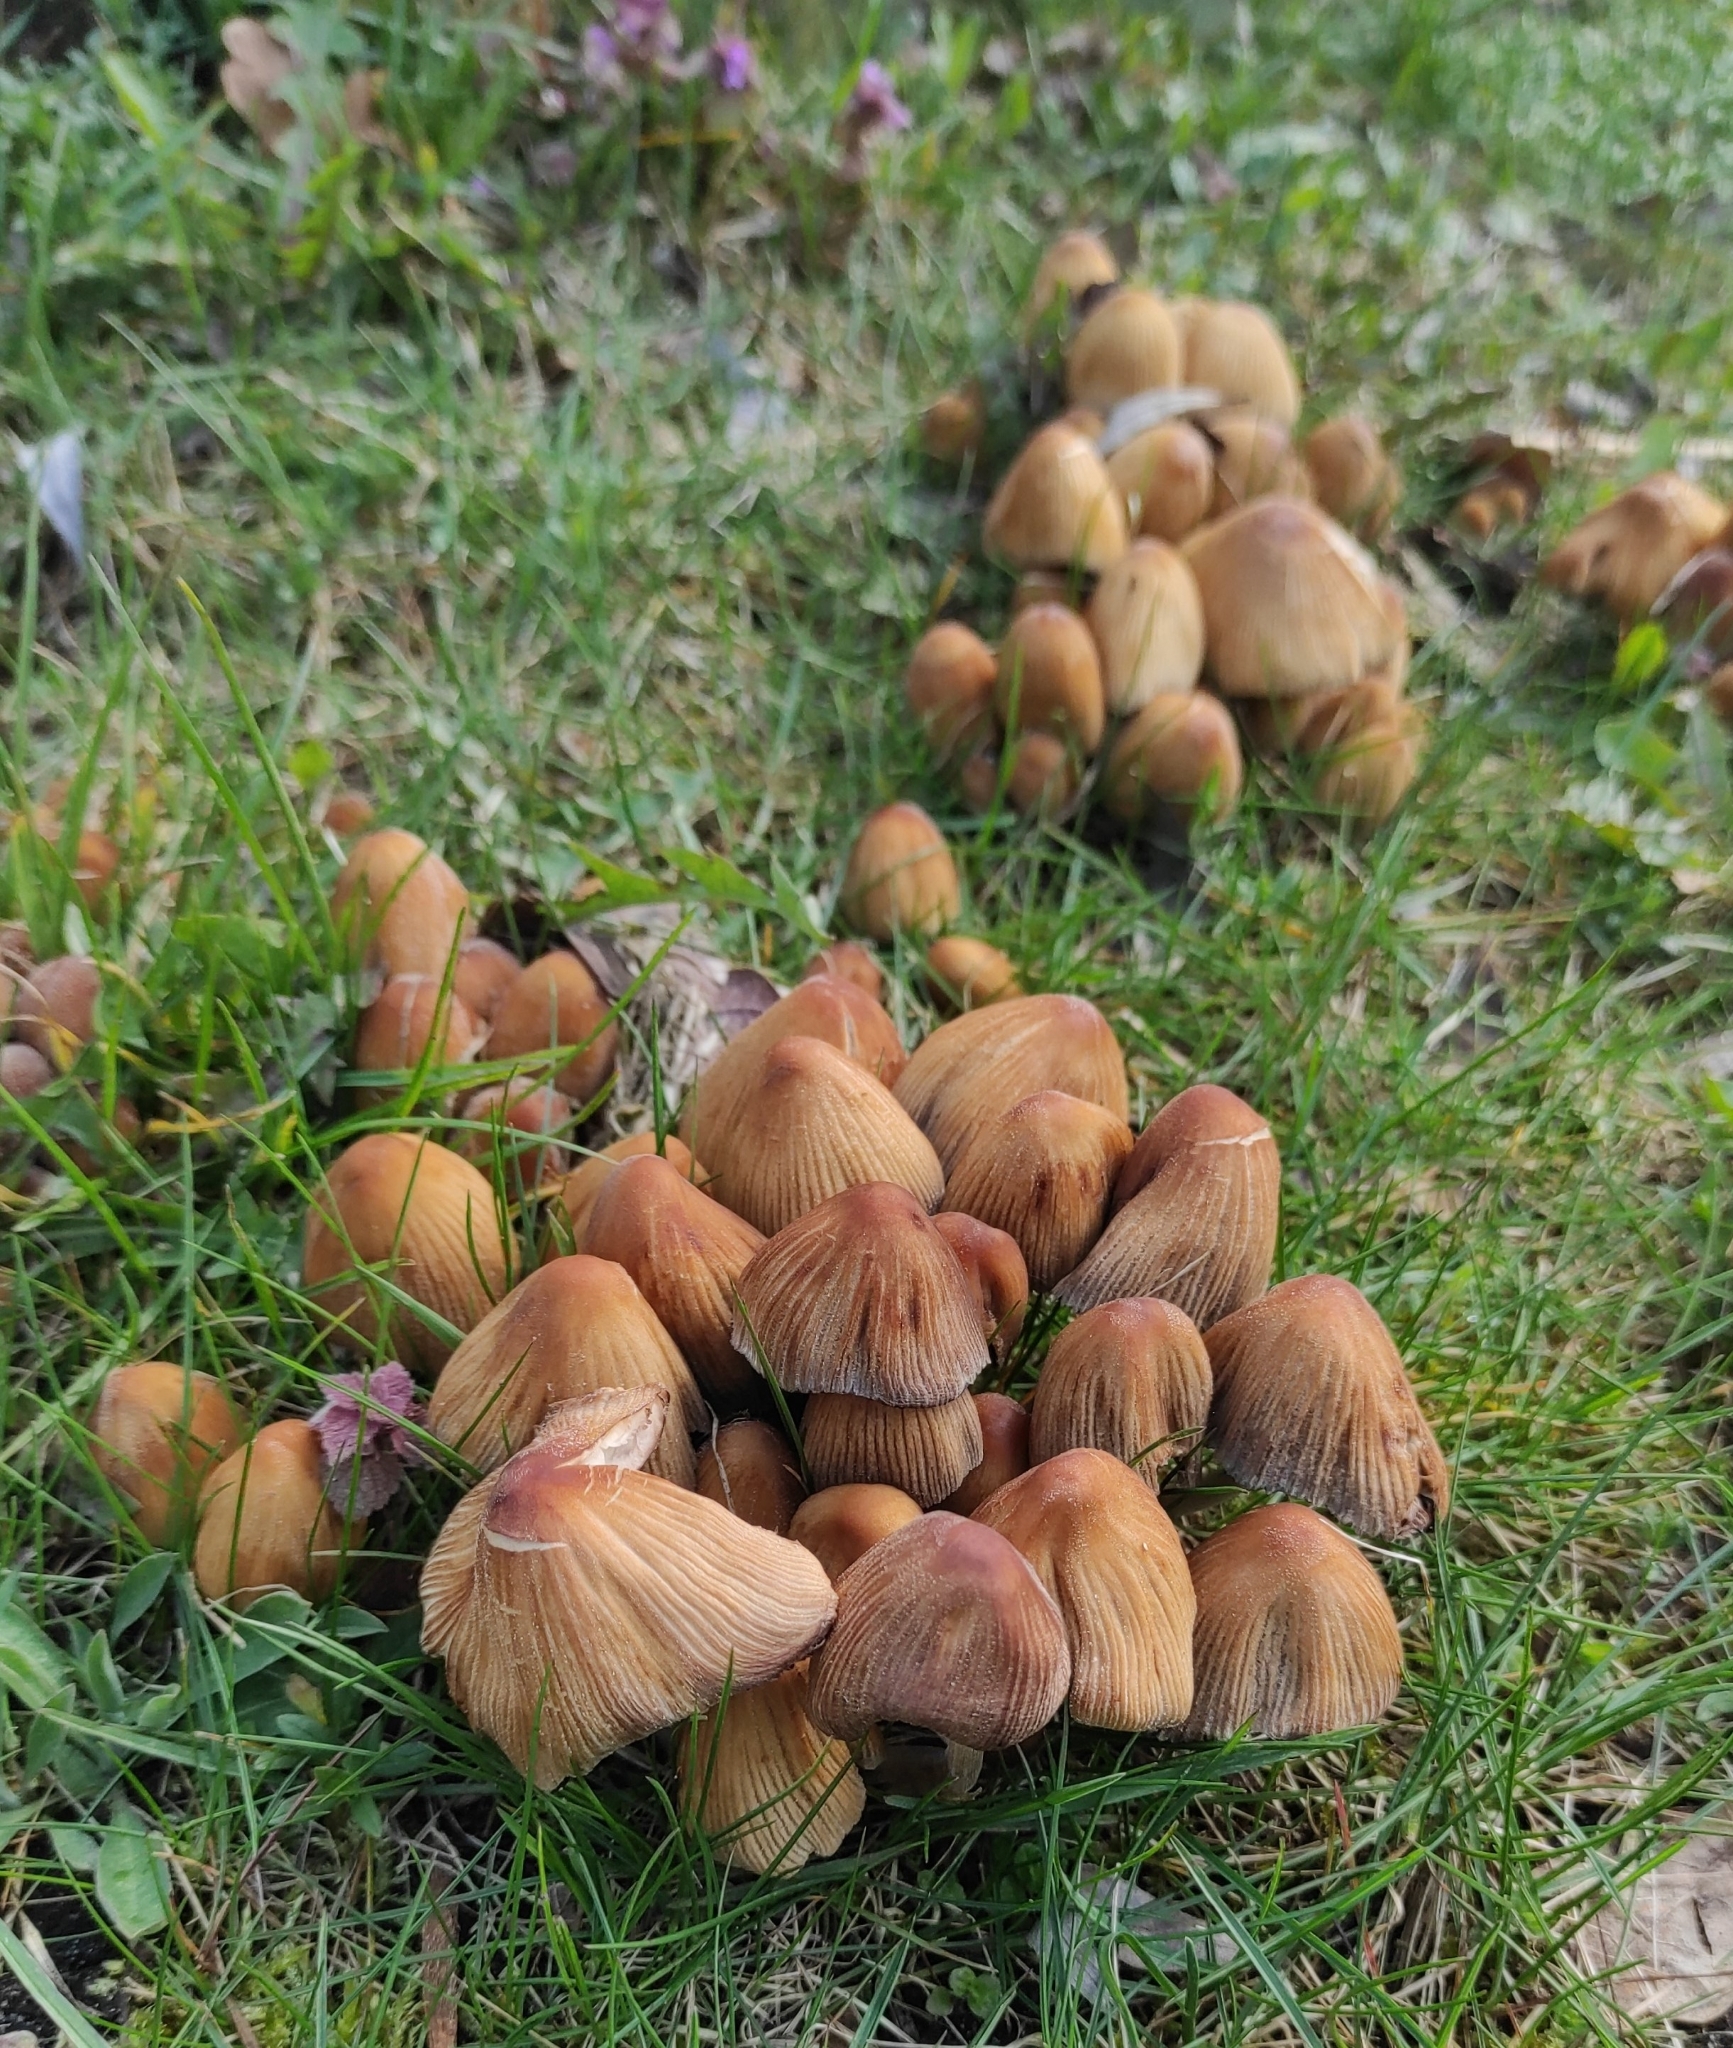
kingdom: Fungi
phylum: Basidiomycota
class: Agaricomycetes
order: Agaricales
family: Psathyrellaceae
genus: Coprinellus
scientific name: Coprinellus micaceus
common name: Glistening ink-cap
